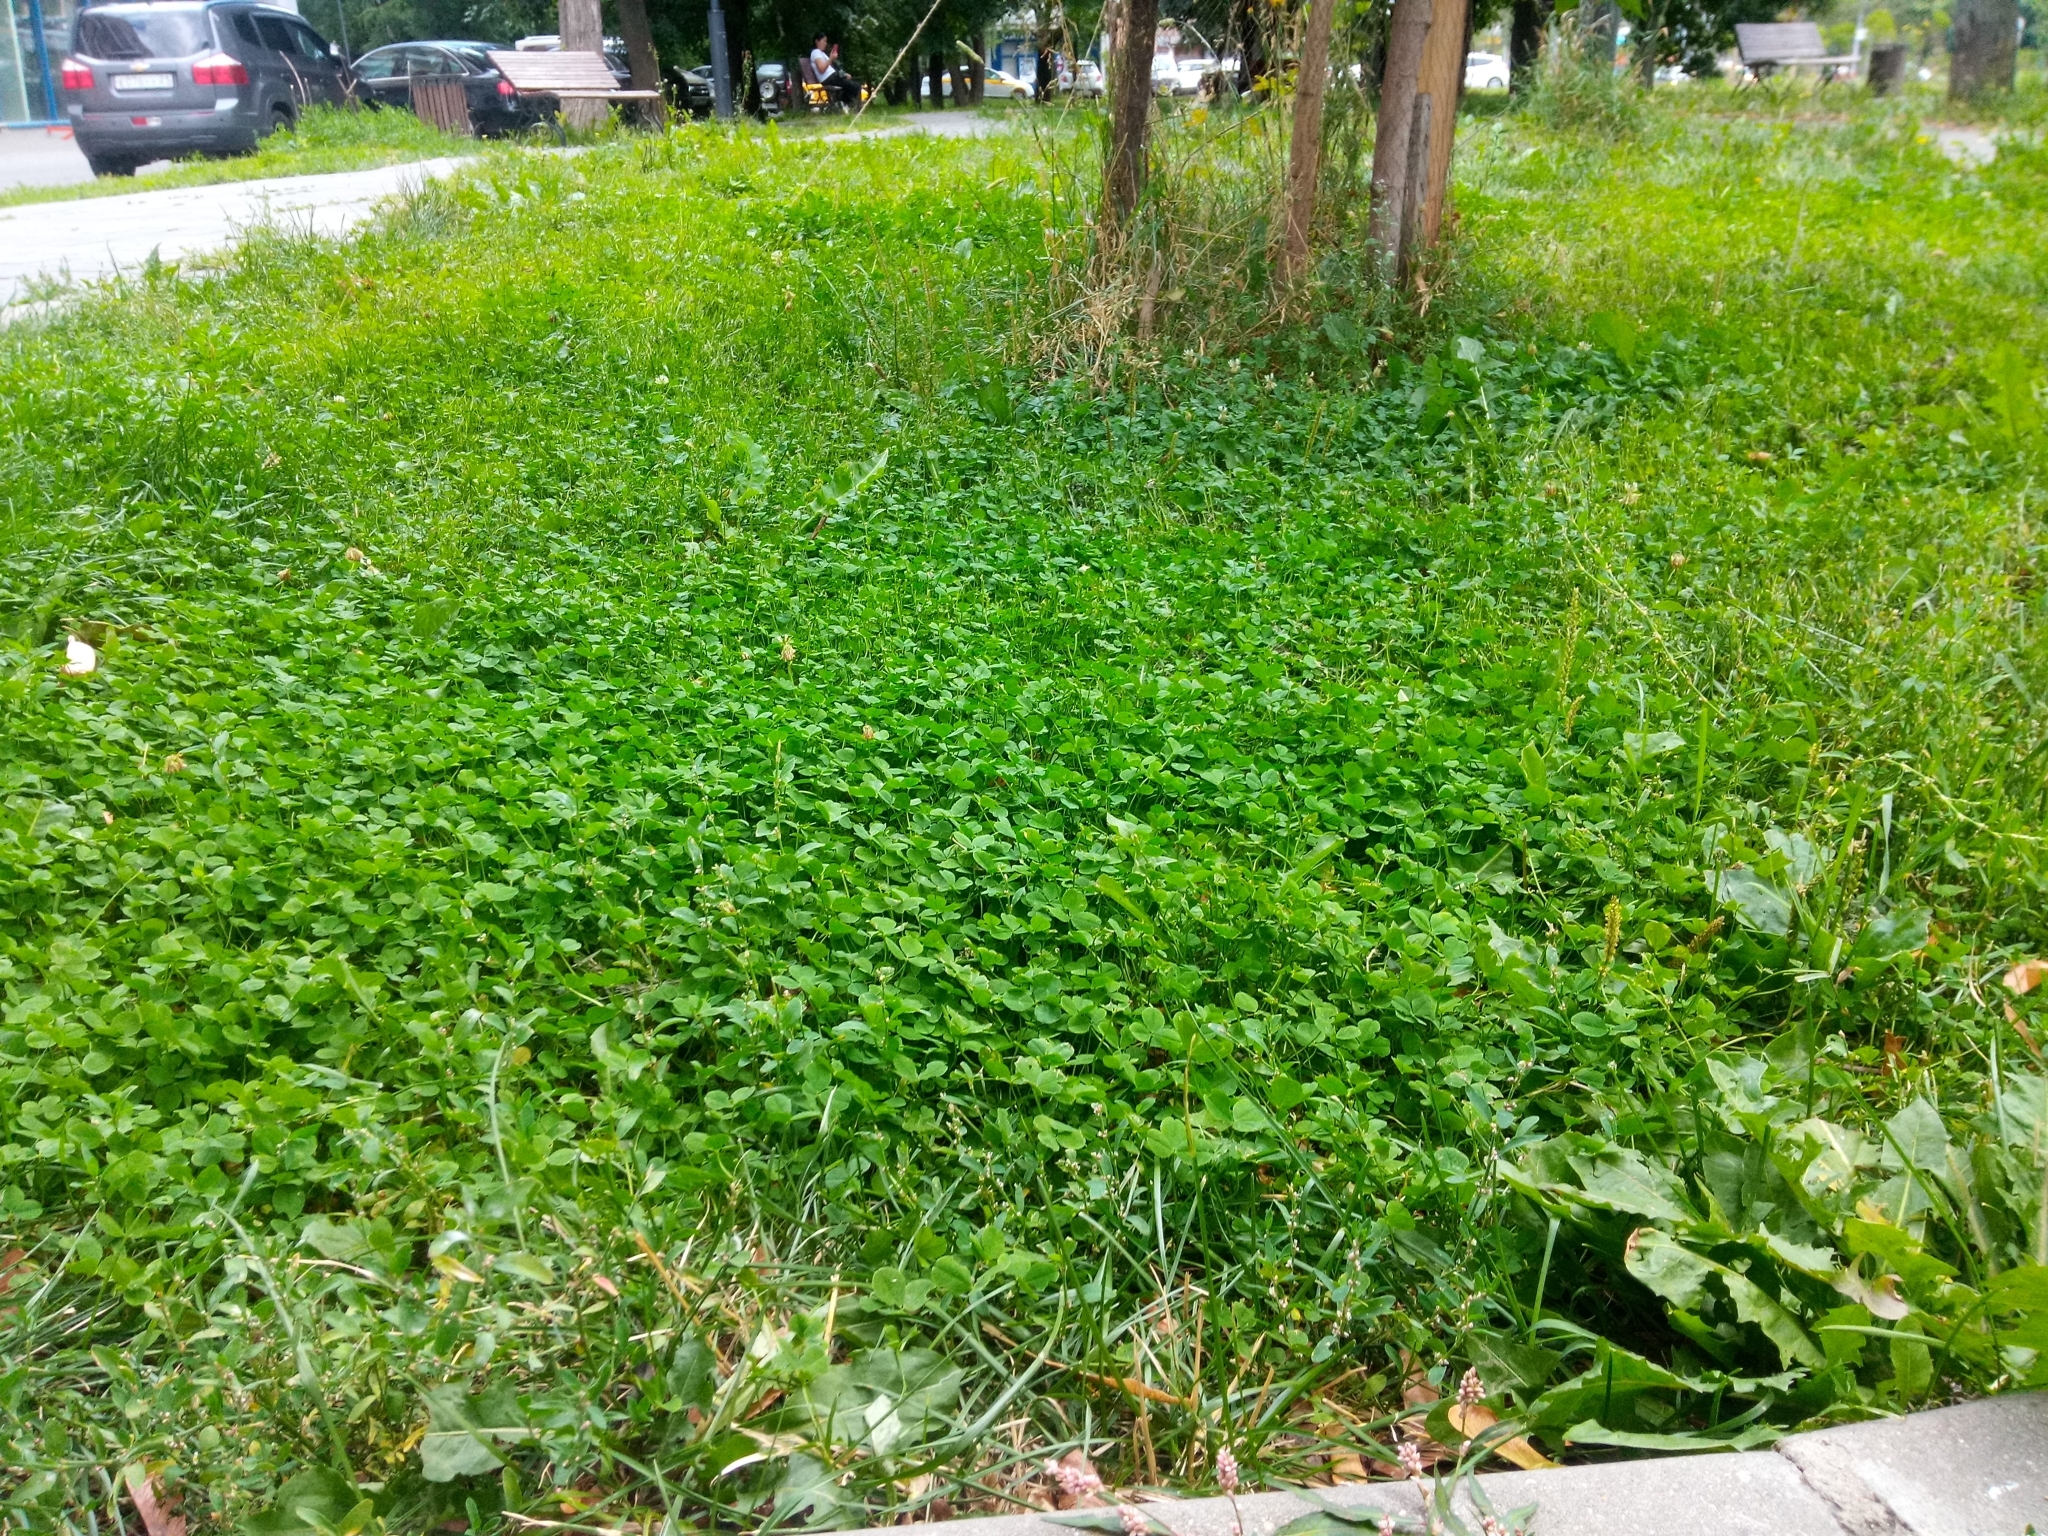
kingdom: Plantae
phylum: Tracheophyta
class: Magnoliopsida
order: Fabales
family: Fabaceae
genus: Trifolium
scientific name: Trifolium repens
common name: White clover
